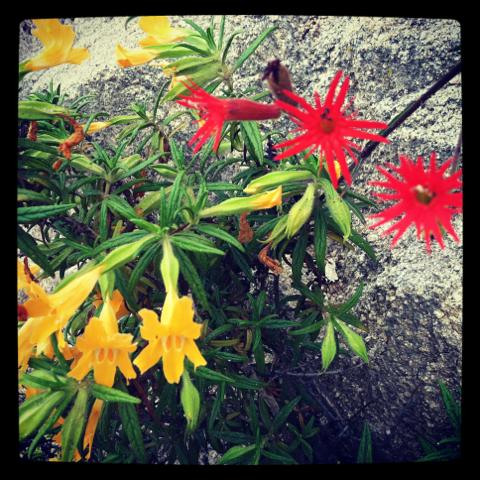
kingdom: Plantae
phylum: Tracheophyta
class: Magnoliopsida
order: Lamiales
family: Phrymaceae
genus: Diplacus
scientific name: Diplacus longiflorus
